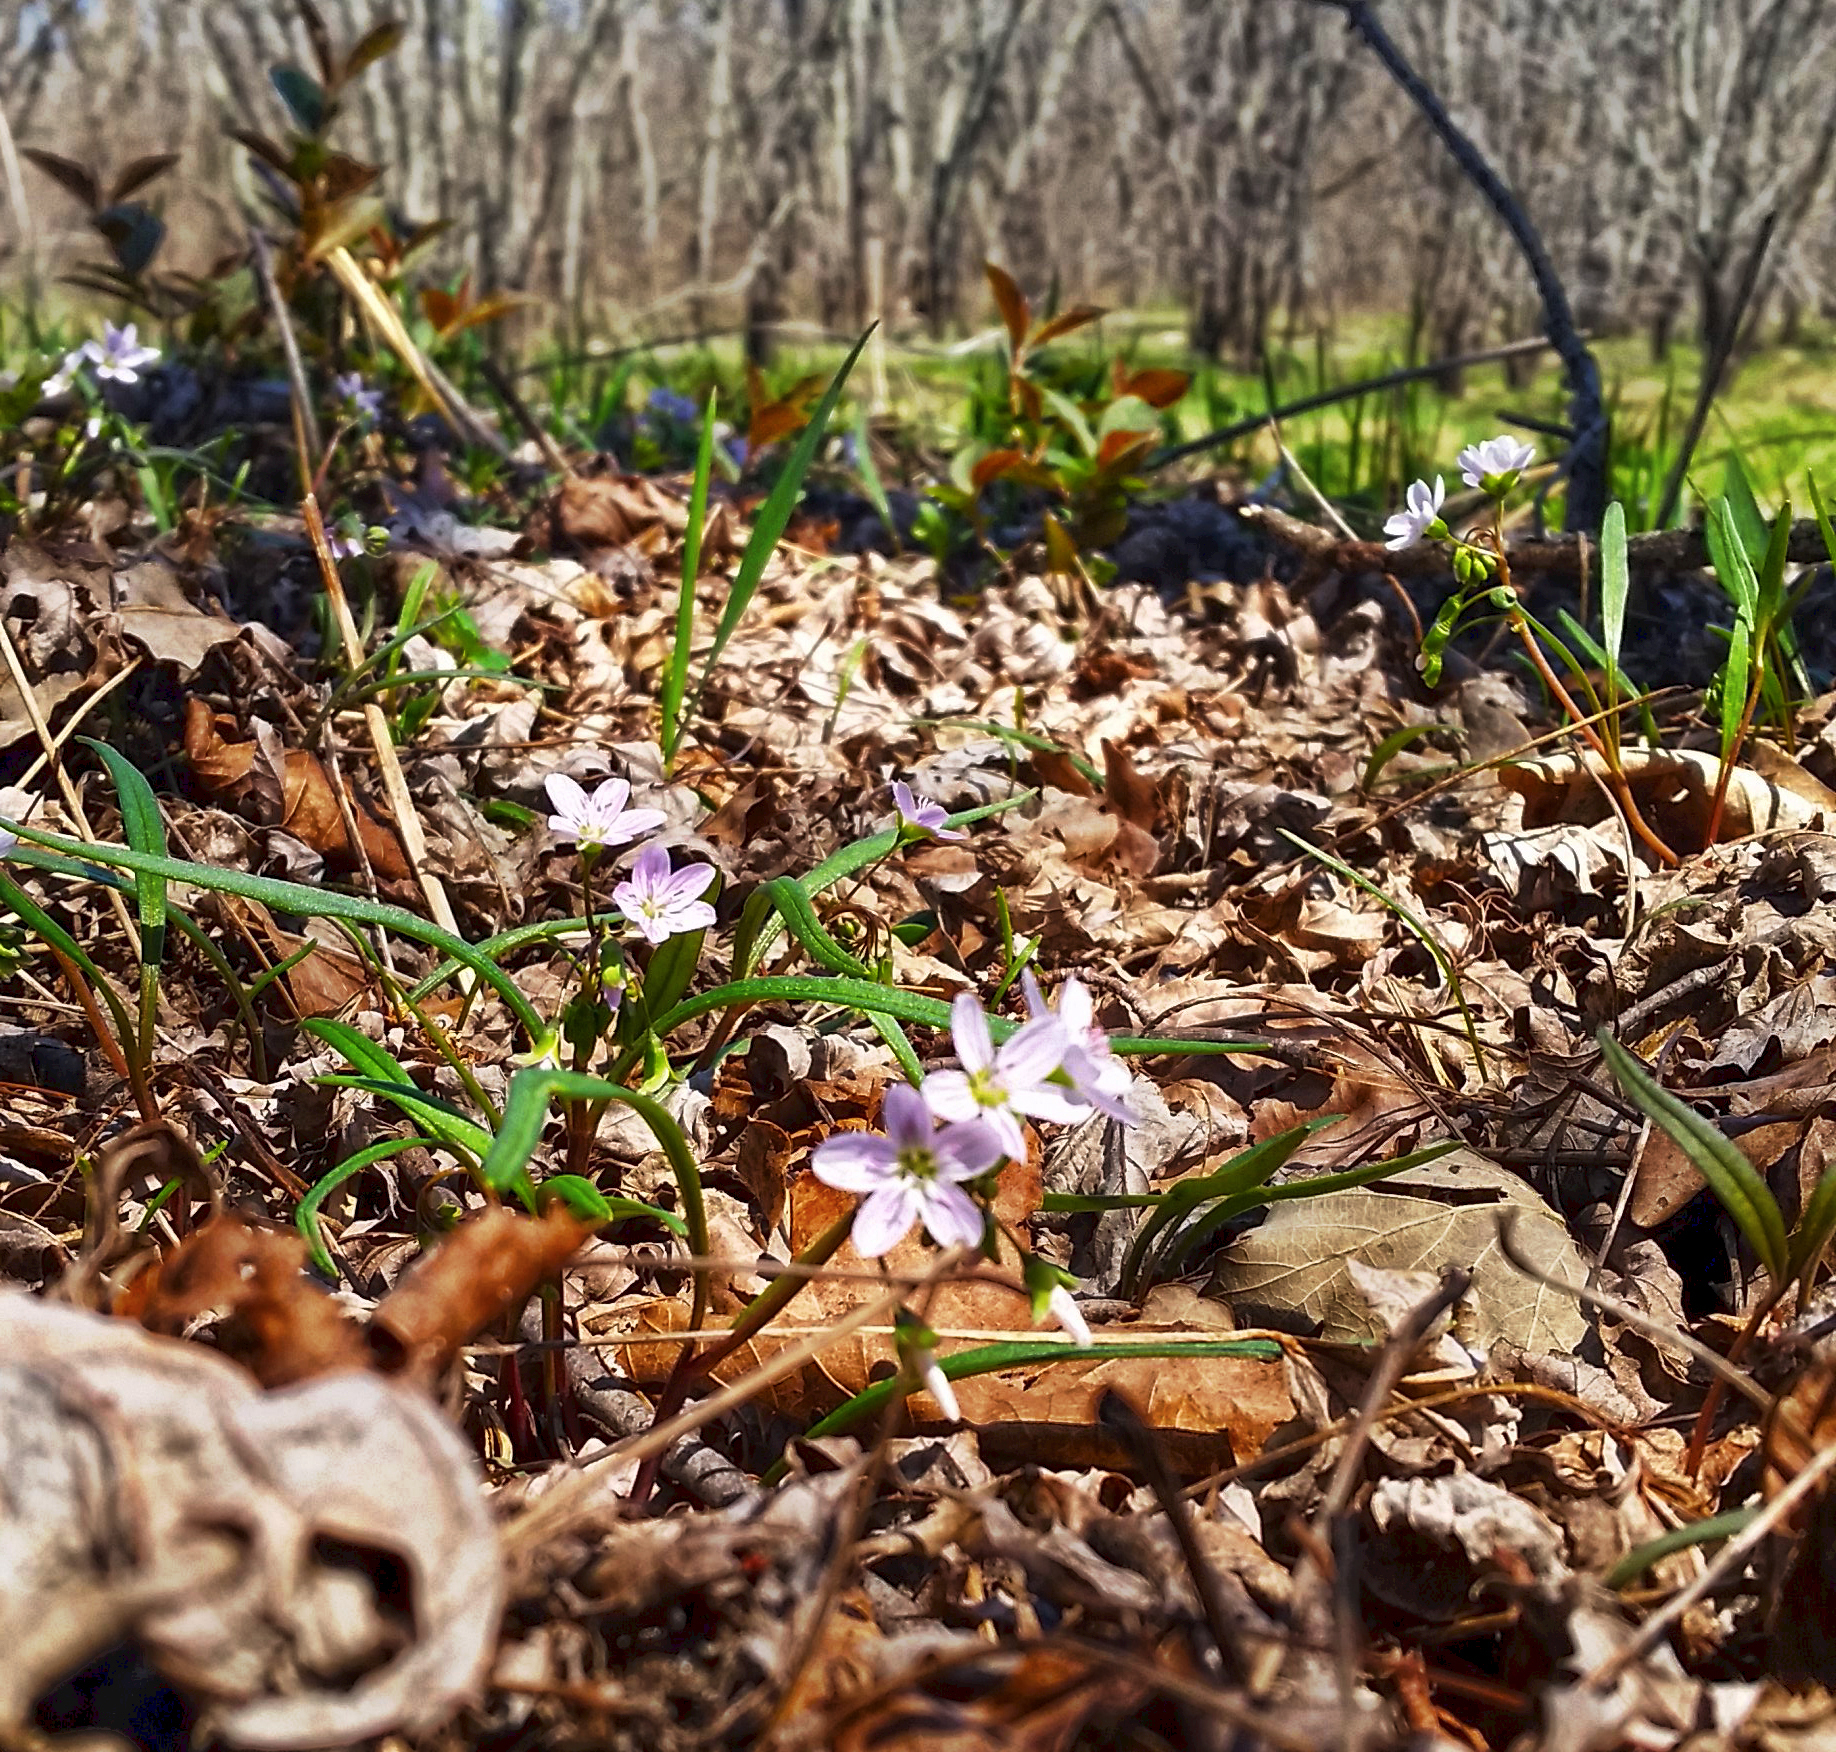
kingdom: Plantae
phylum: Tracheophyta
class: Magnoliopsida
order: Caryophyllales
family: Montiaceae
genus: Claytonia
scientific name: Claytonia virginica
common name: Virginia springbeauty
